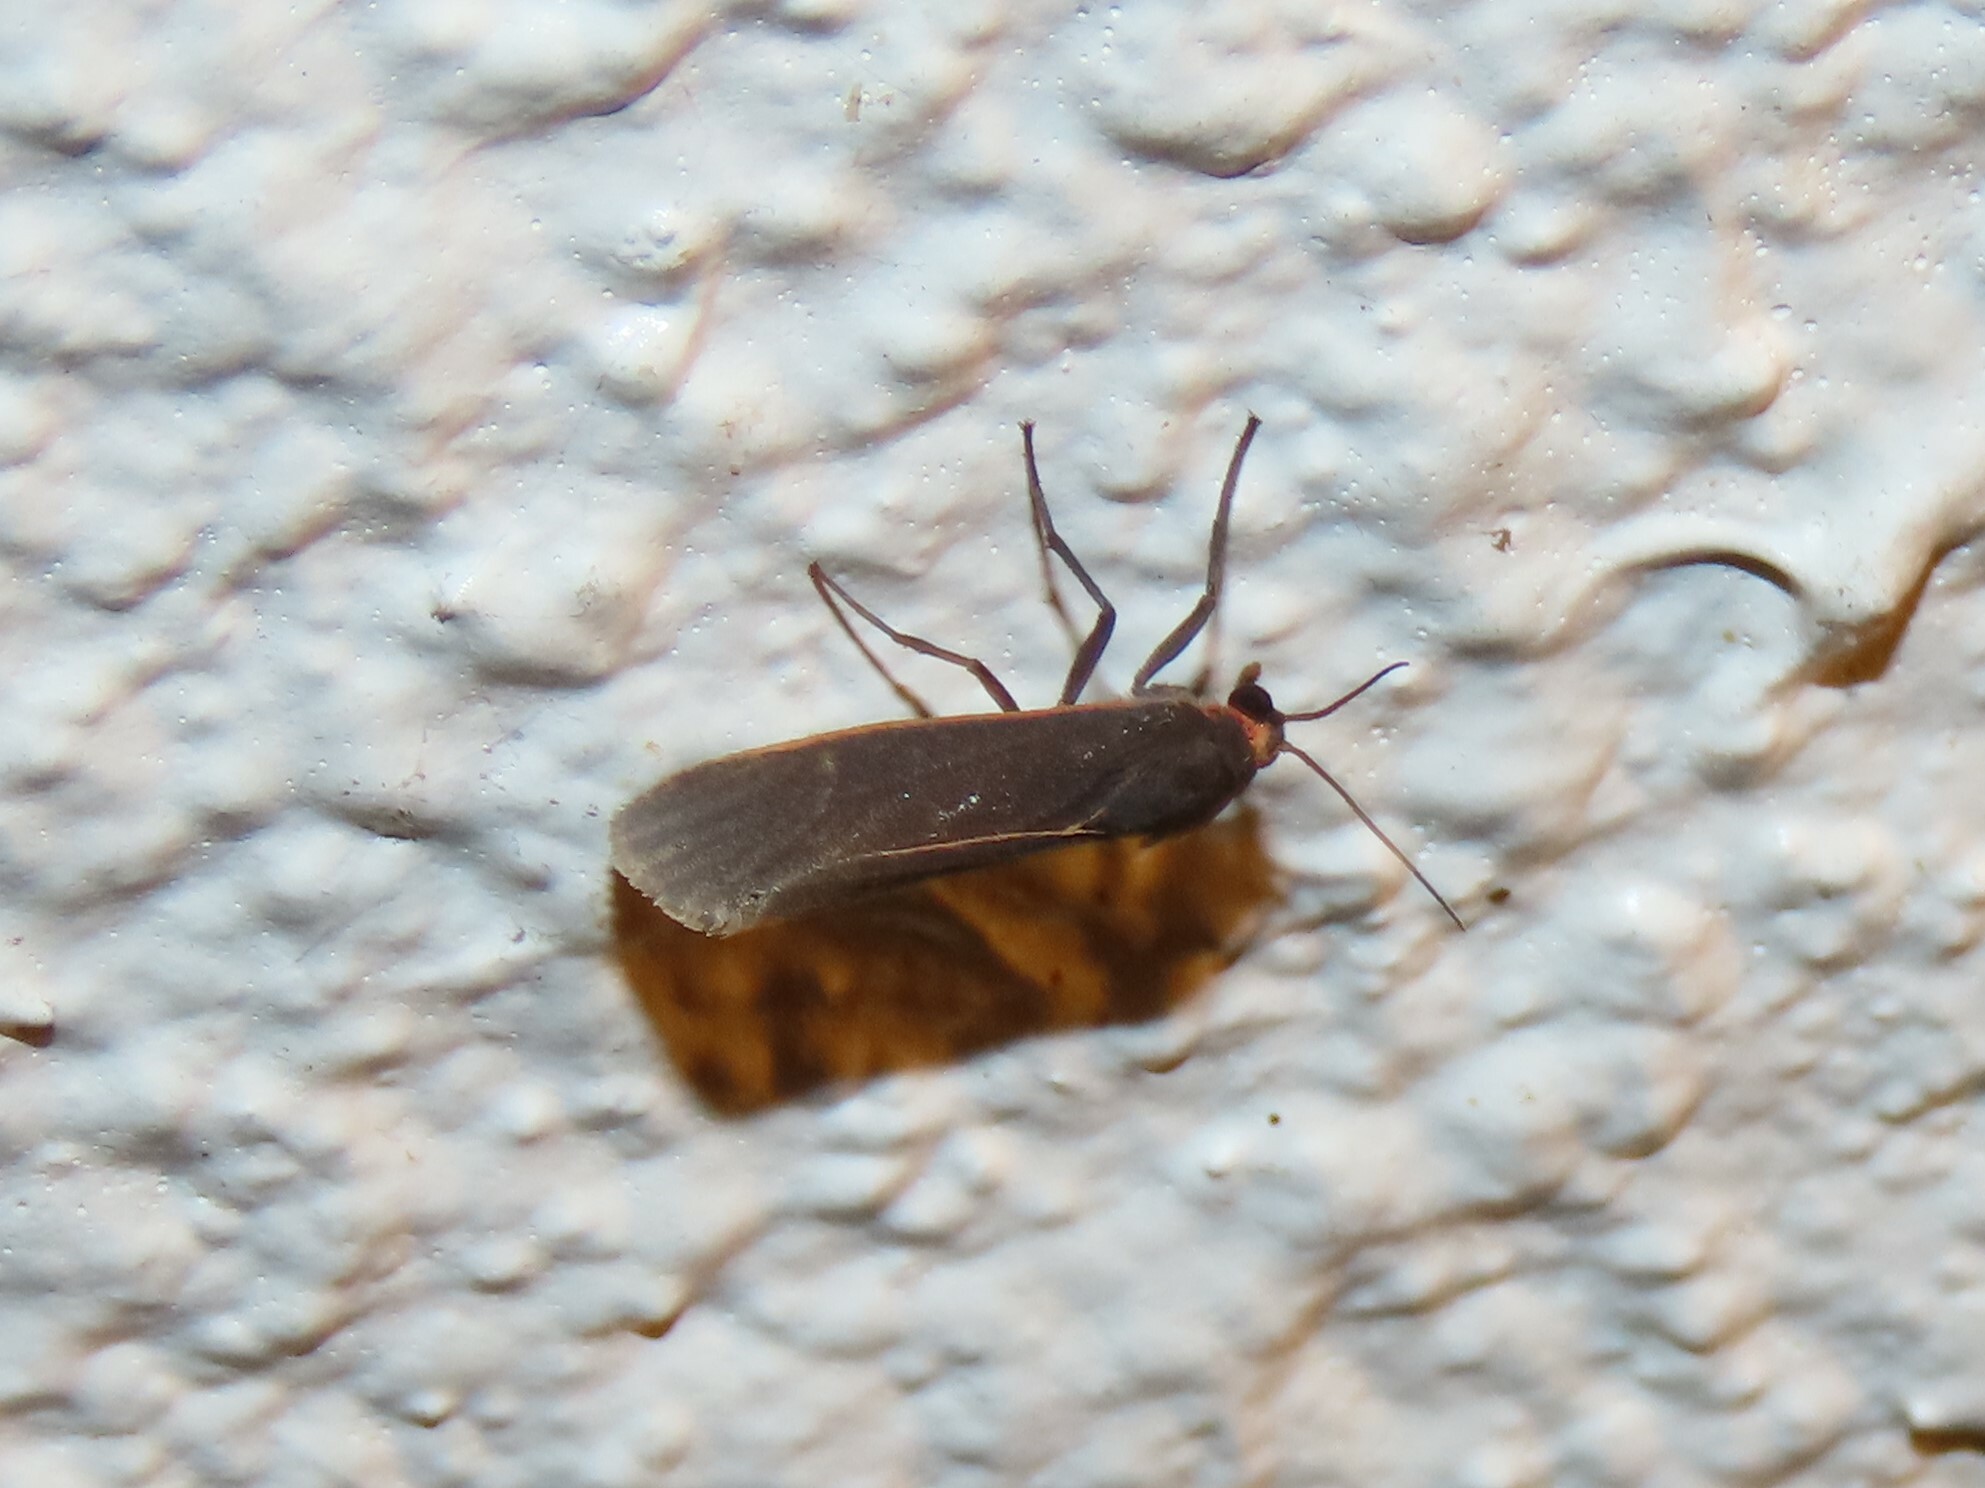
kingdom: Animalia
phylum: Arthropoda
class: Insecta
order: Lepidoptera
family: Erebidae
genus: Virbia
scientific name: Virbia laeta
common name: Joyful holomelina moth
